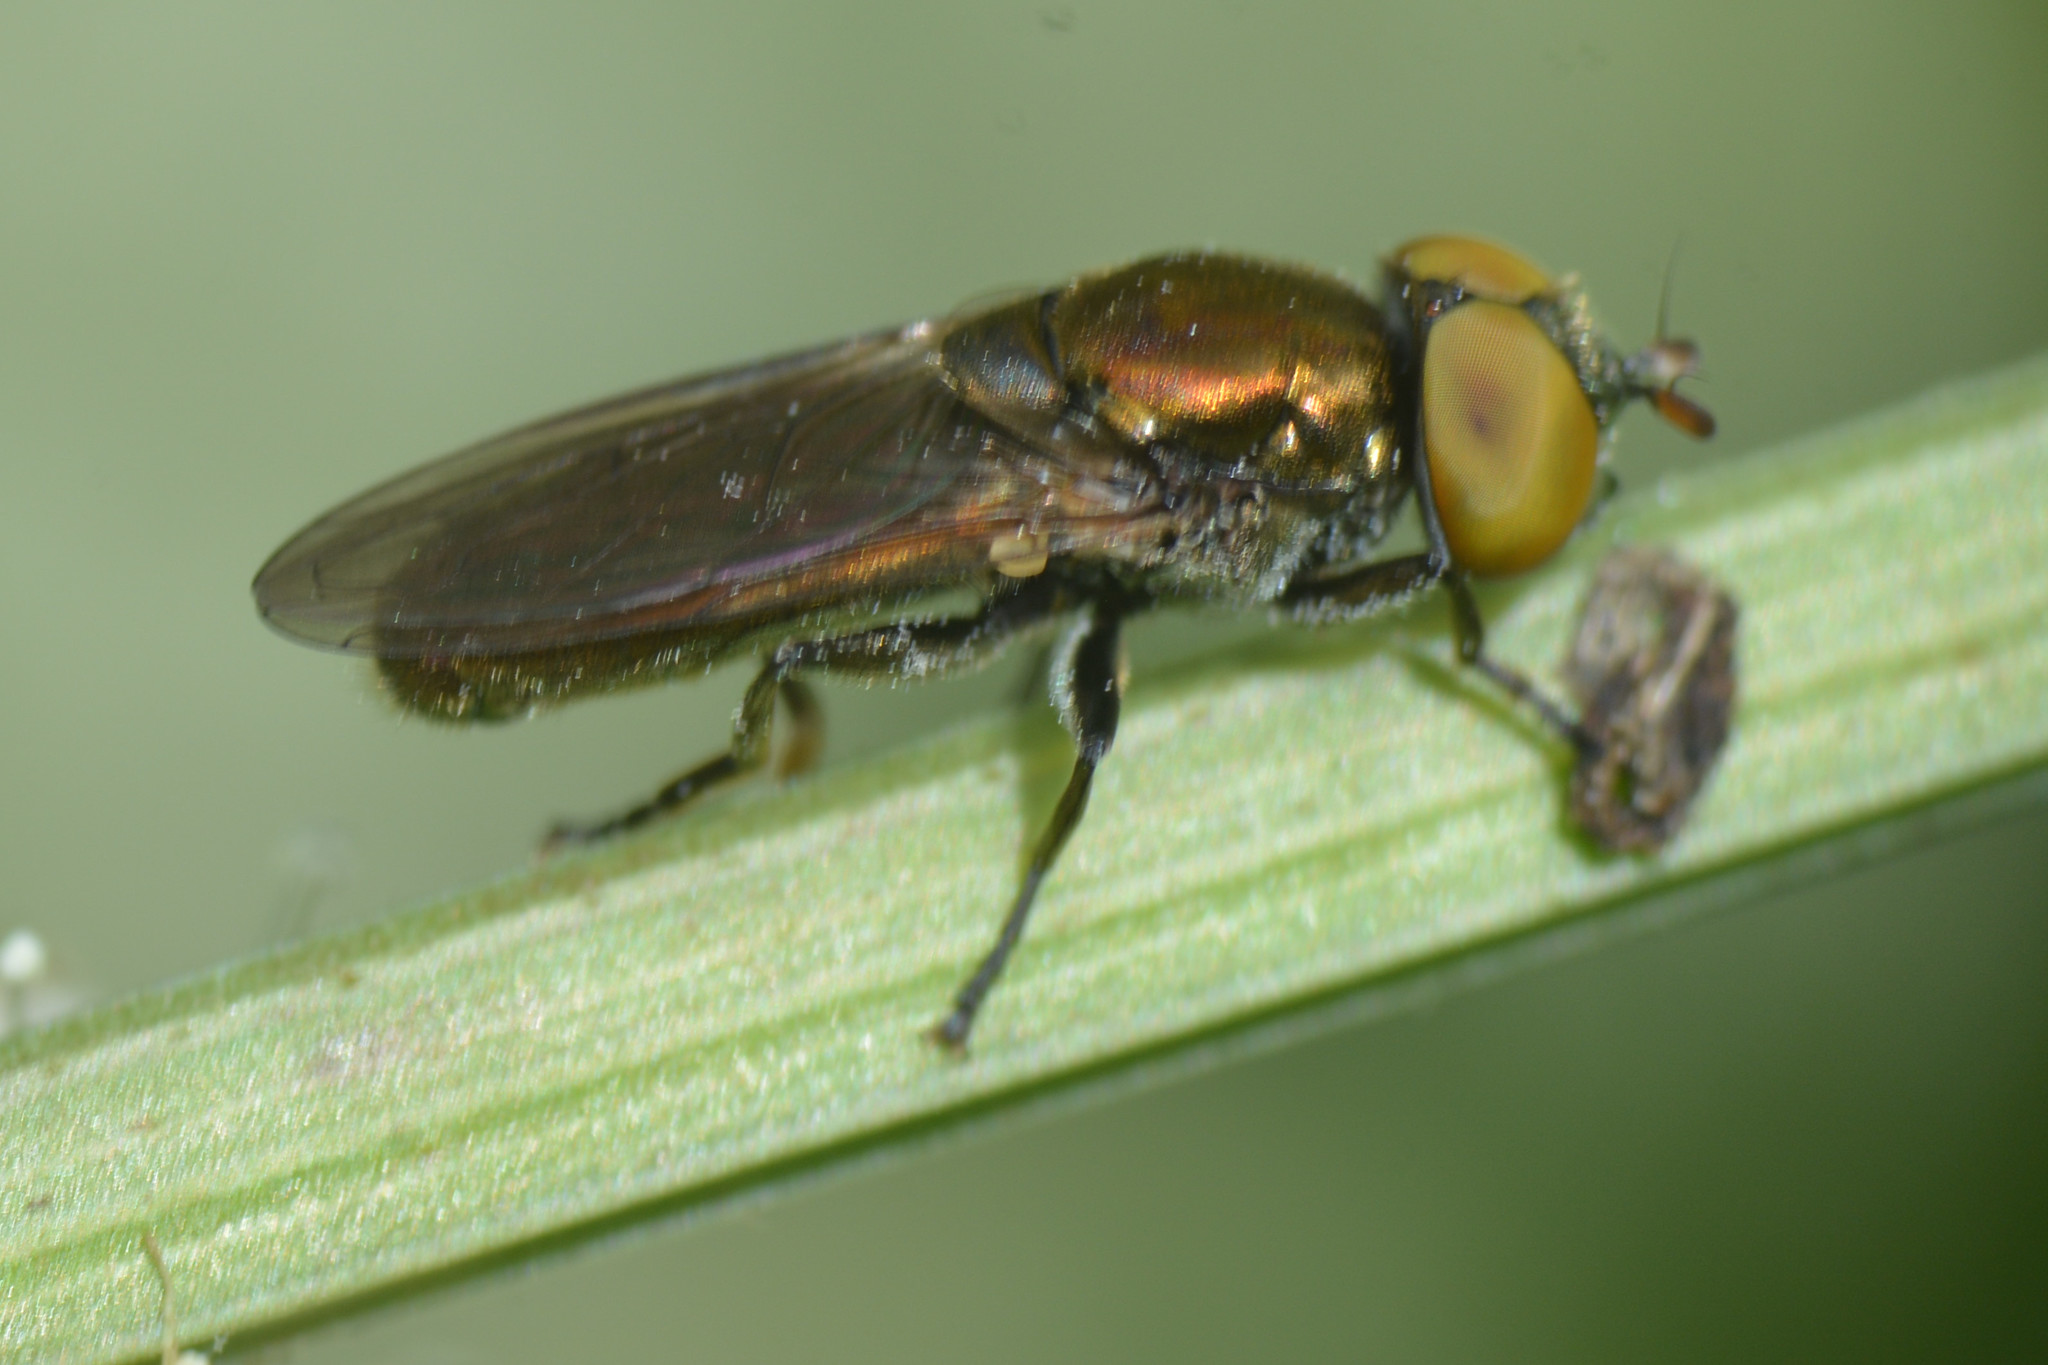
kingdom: Animalia
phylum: Arthropoda
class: Insecta
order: Diptera
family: Syrphidae
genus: Orthonevra
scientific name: Orthonevra splendens
